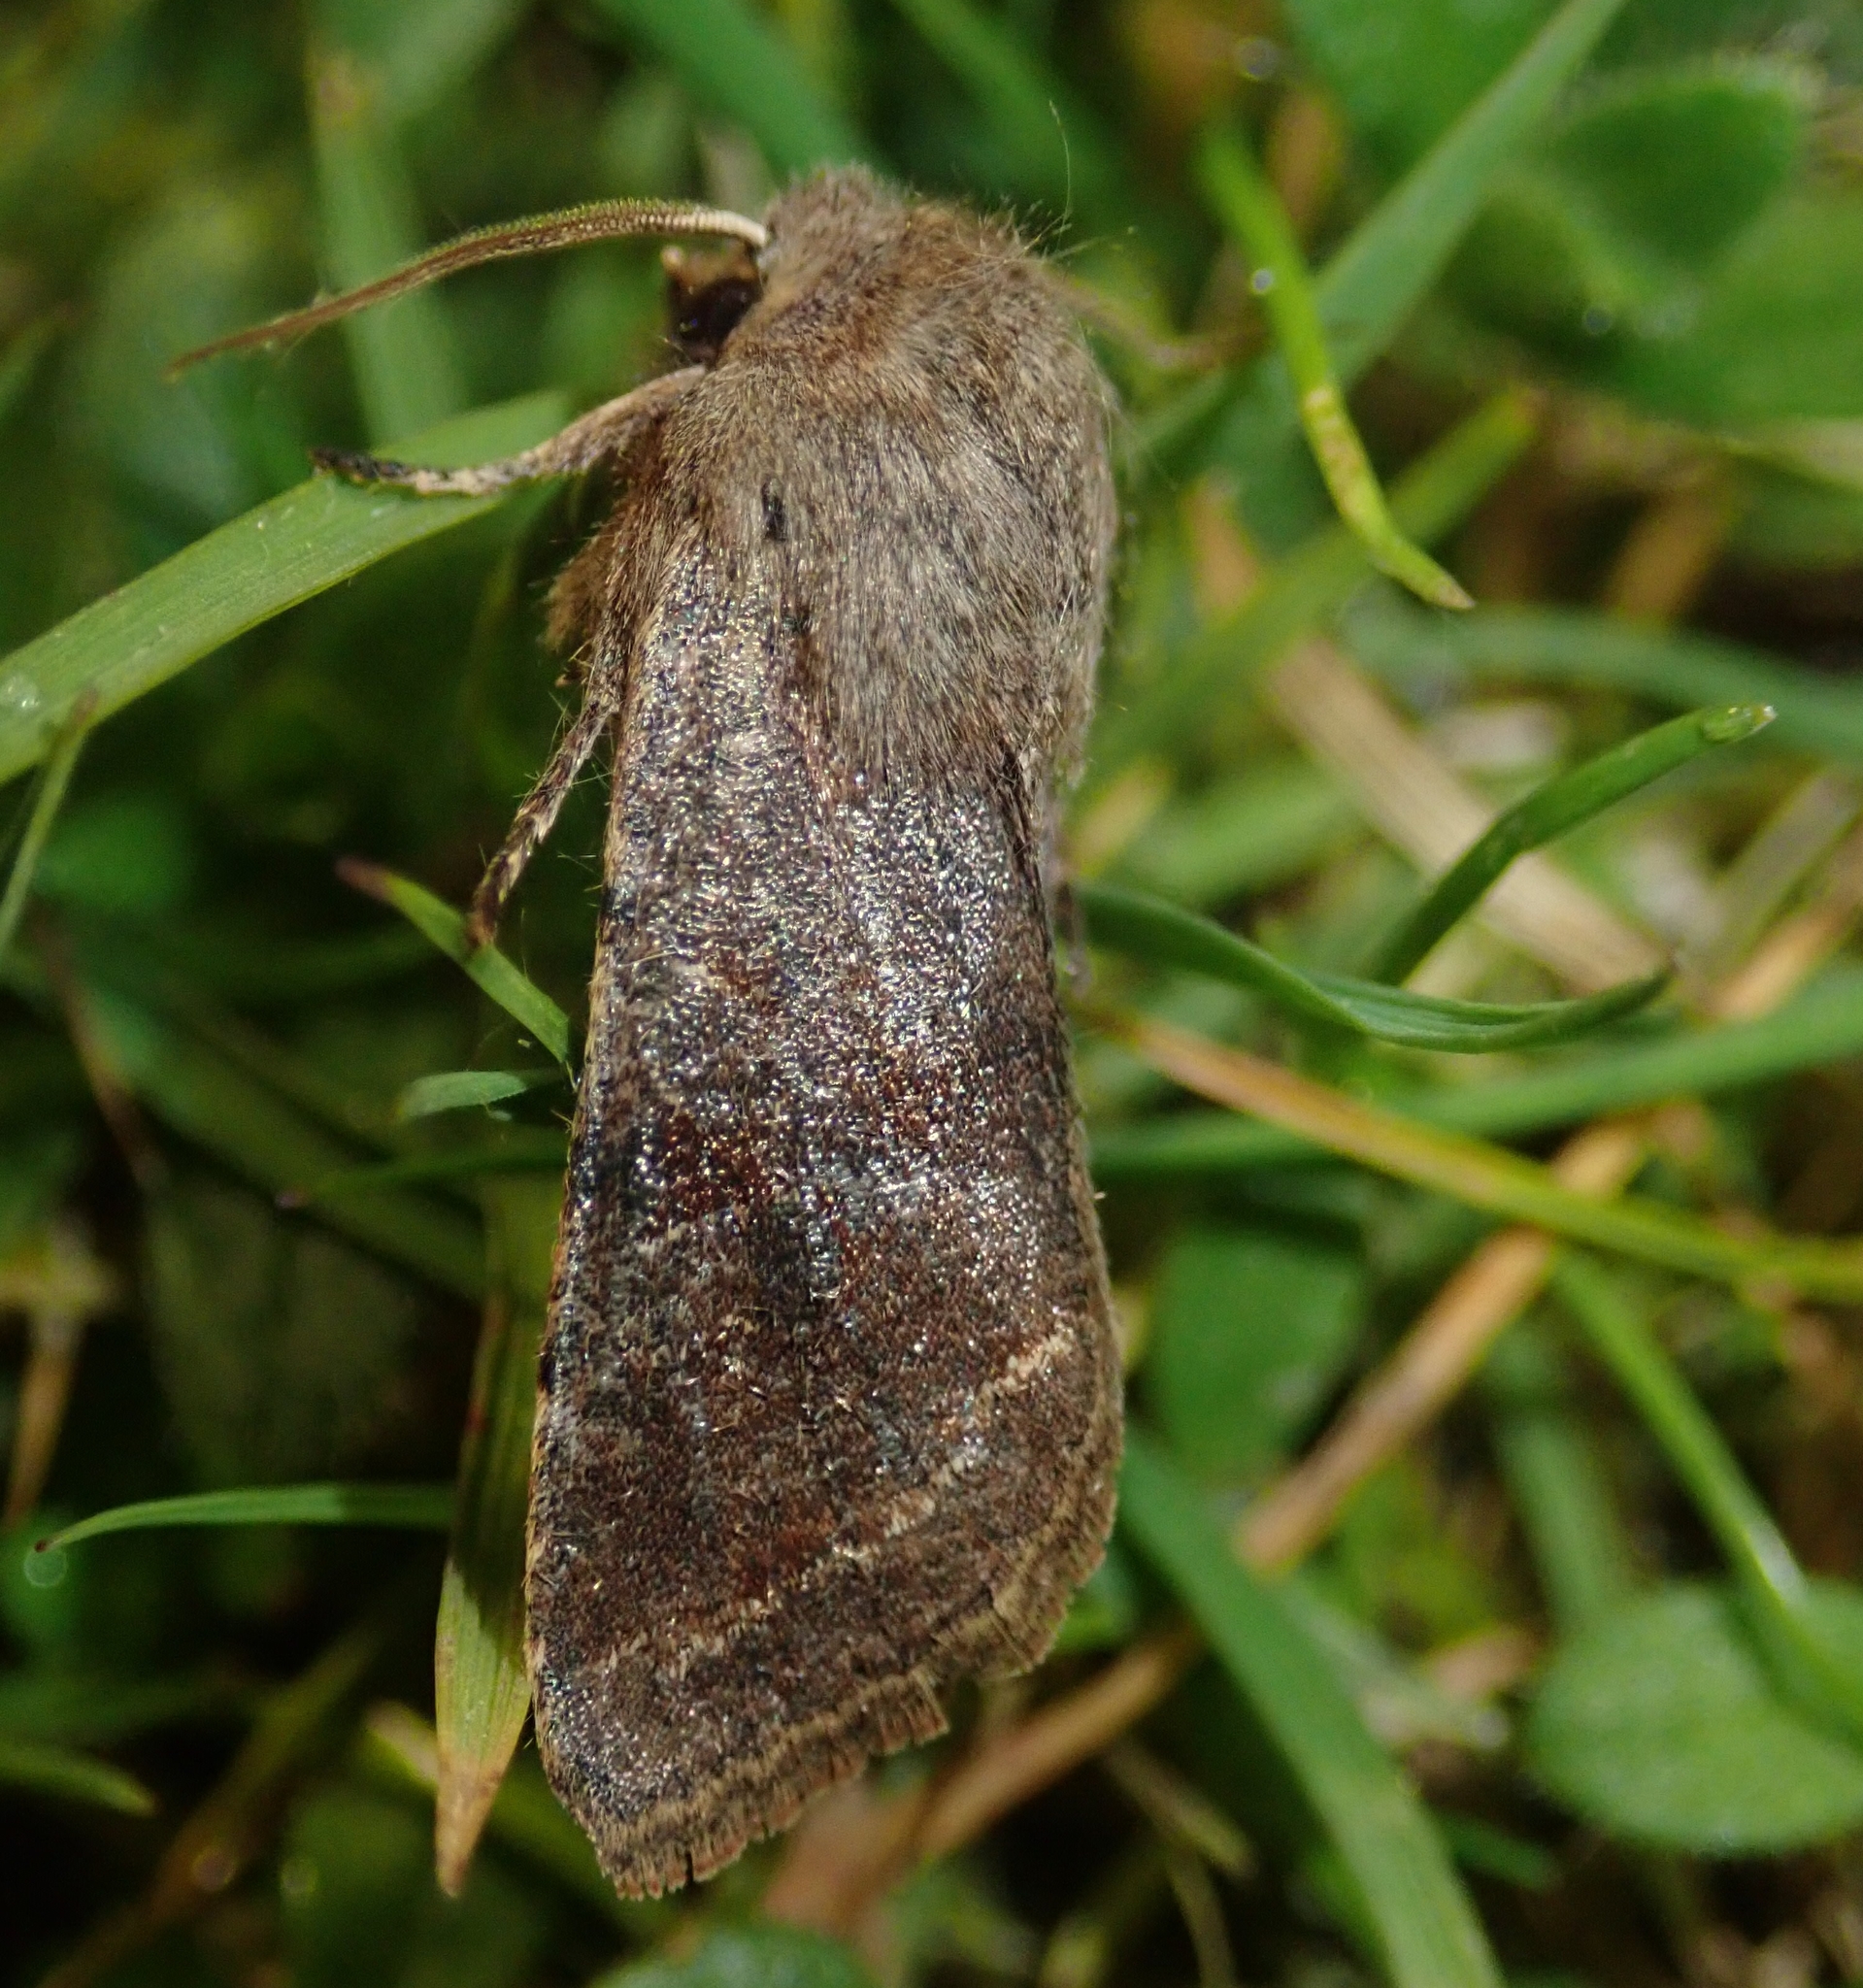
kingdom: Animalia
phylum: Arthropoda
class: Insecta
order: Lepidoptera
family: Noctuidae
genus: Orthosia
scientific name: Orthosia incerta
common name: Clouded drab
